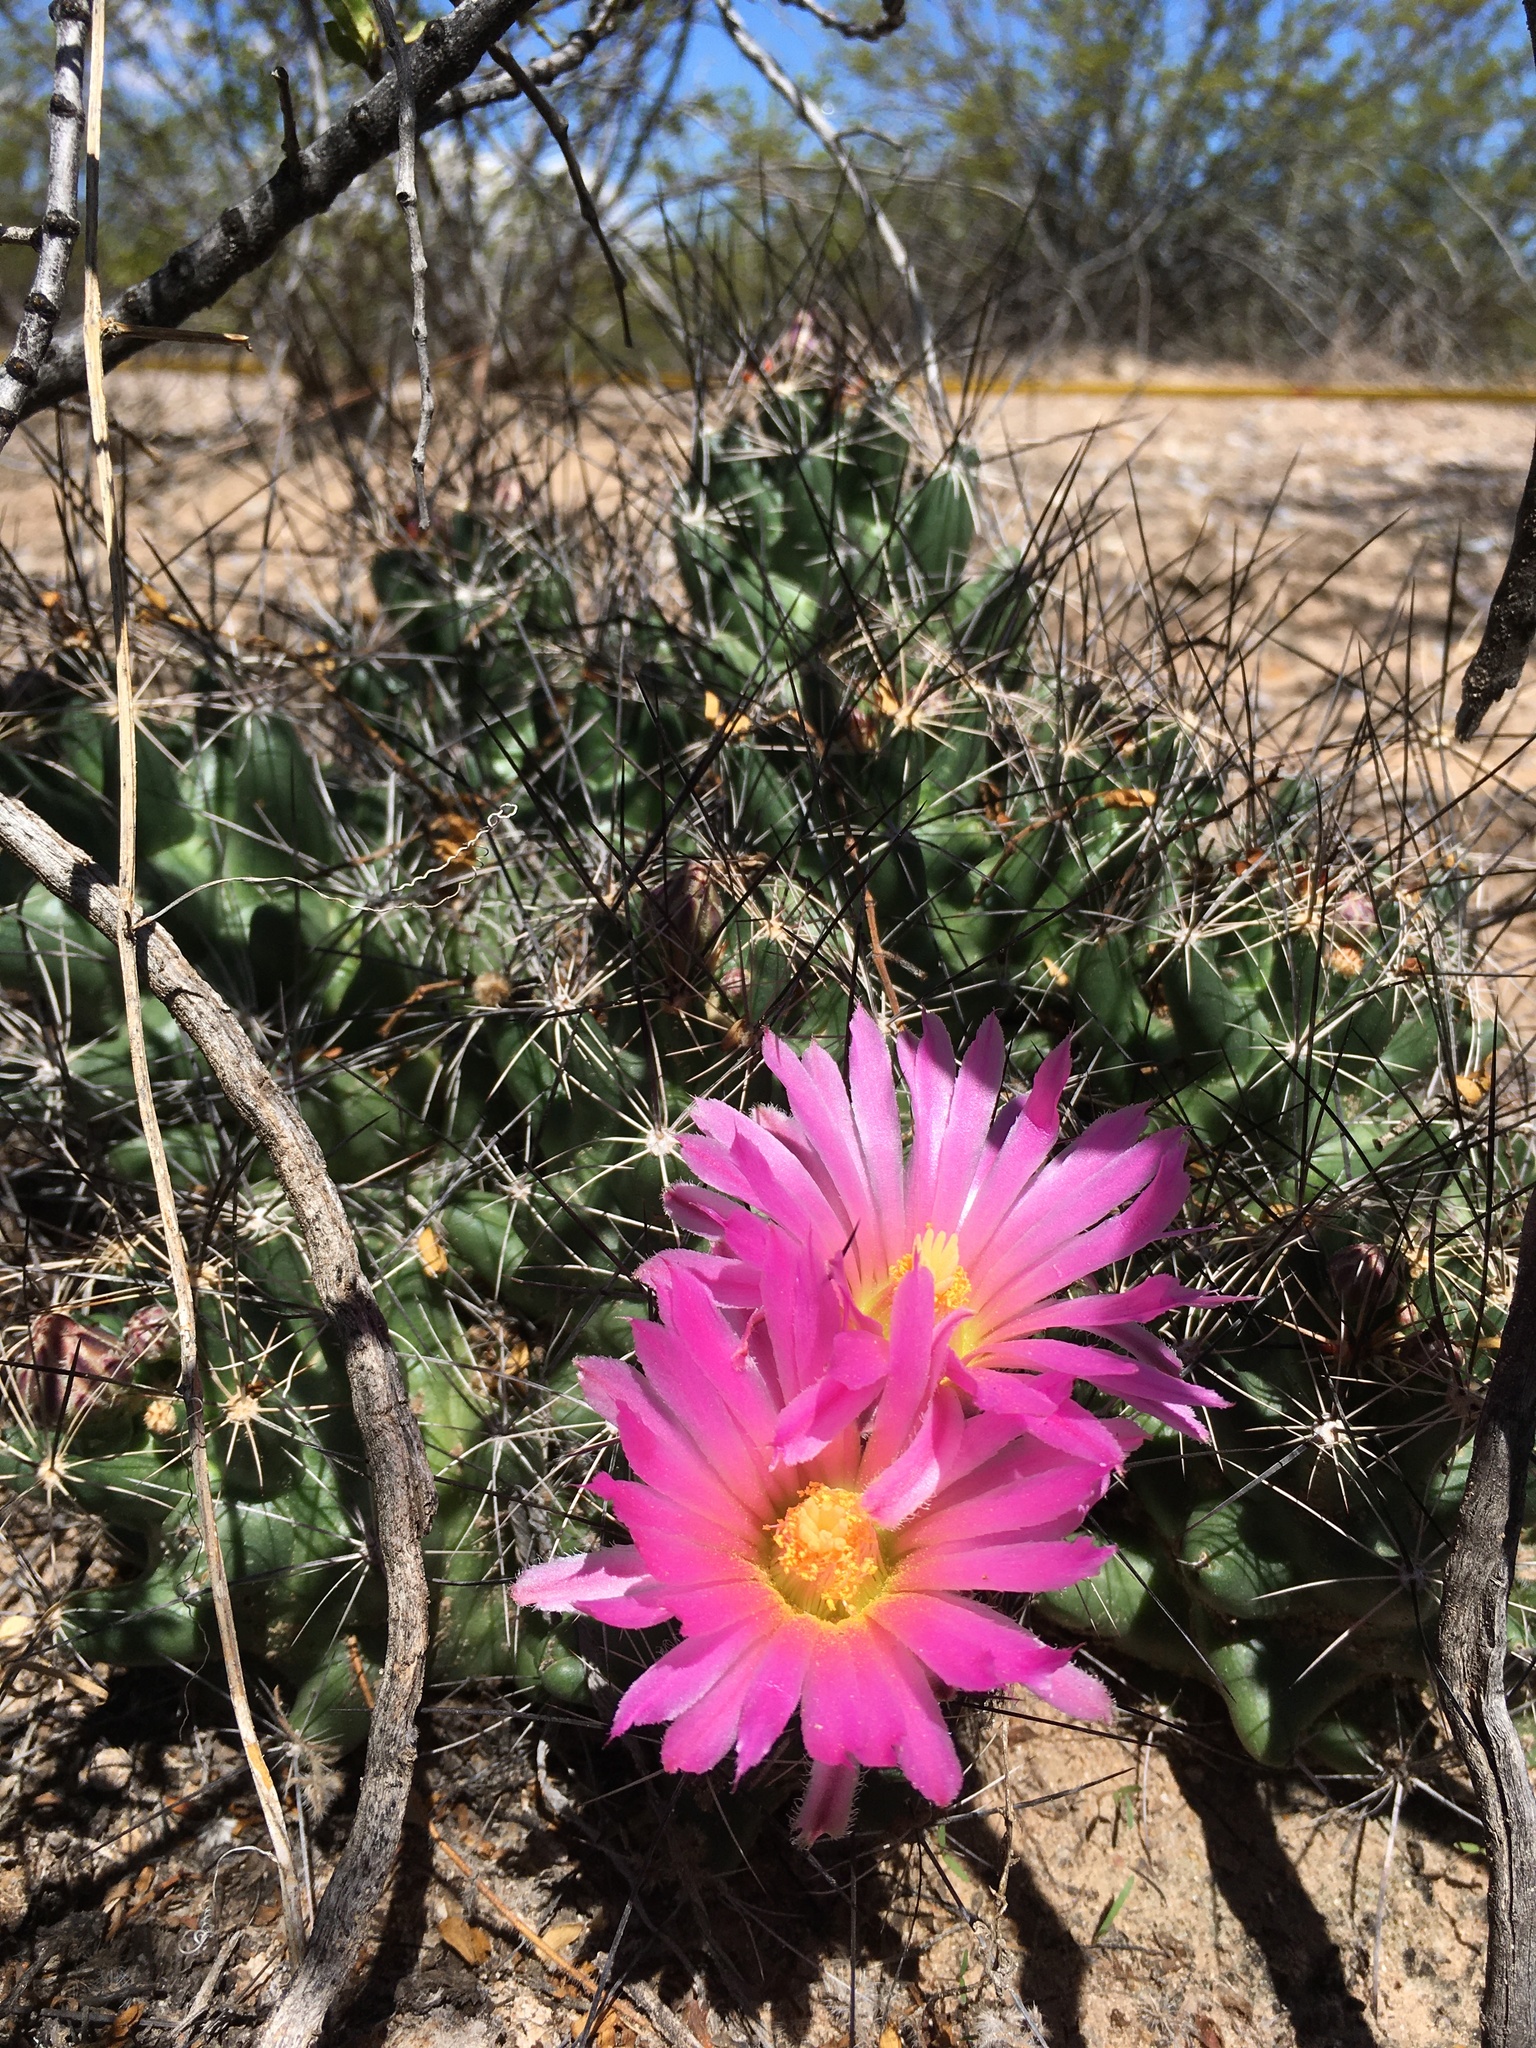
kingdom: Plantae
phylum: Tracheophyta
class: Magnoliopsida
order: Caryophyllales
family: Cactaceae
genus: Coryphantha
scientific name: Coryphantha macromeris
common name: Nipple beehive cactus
